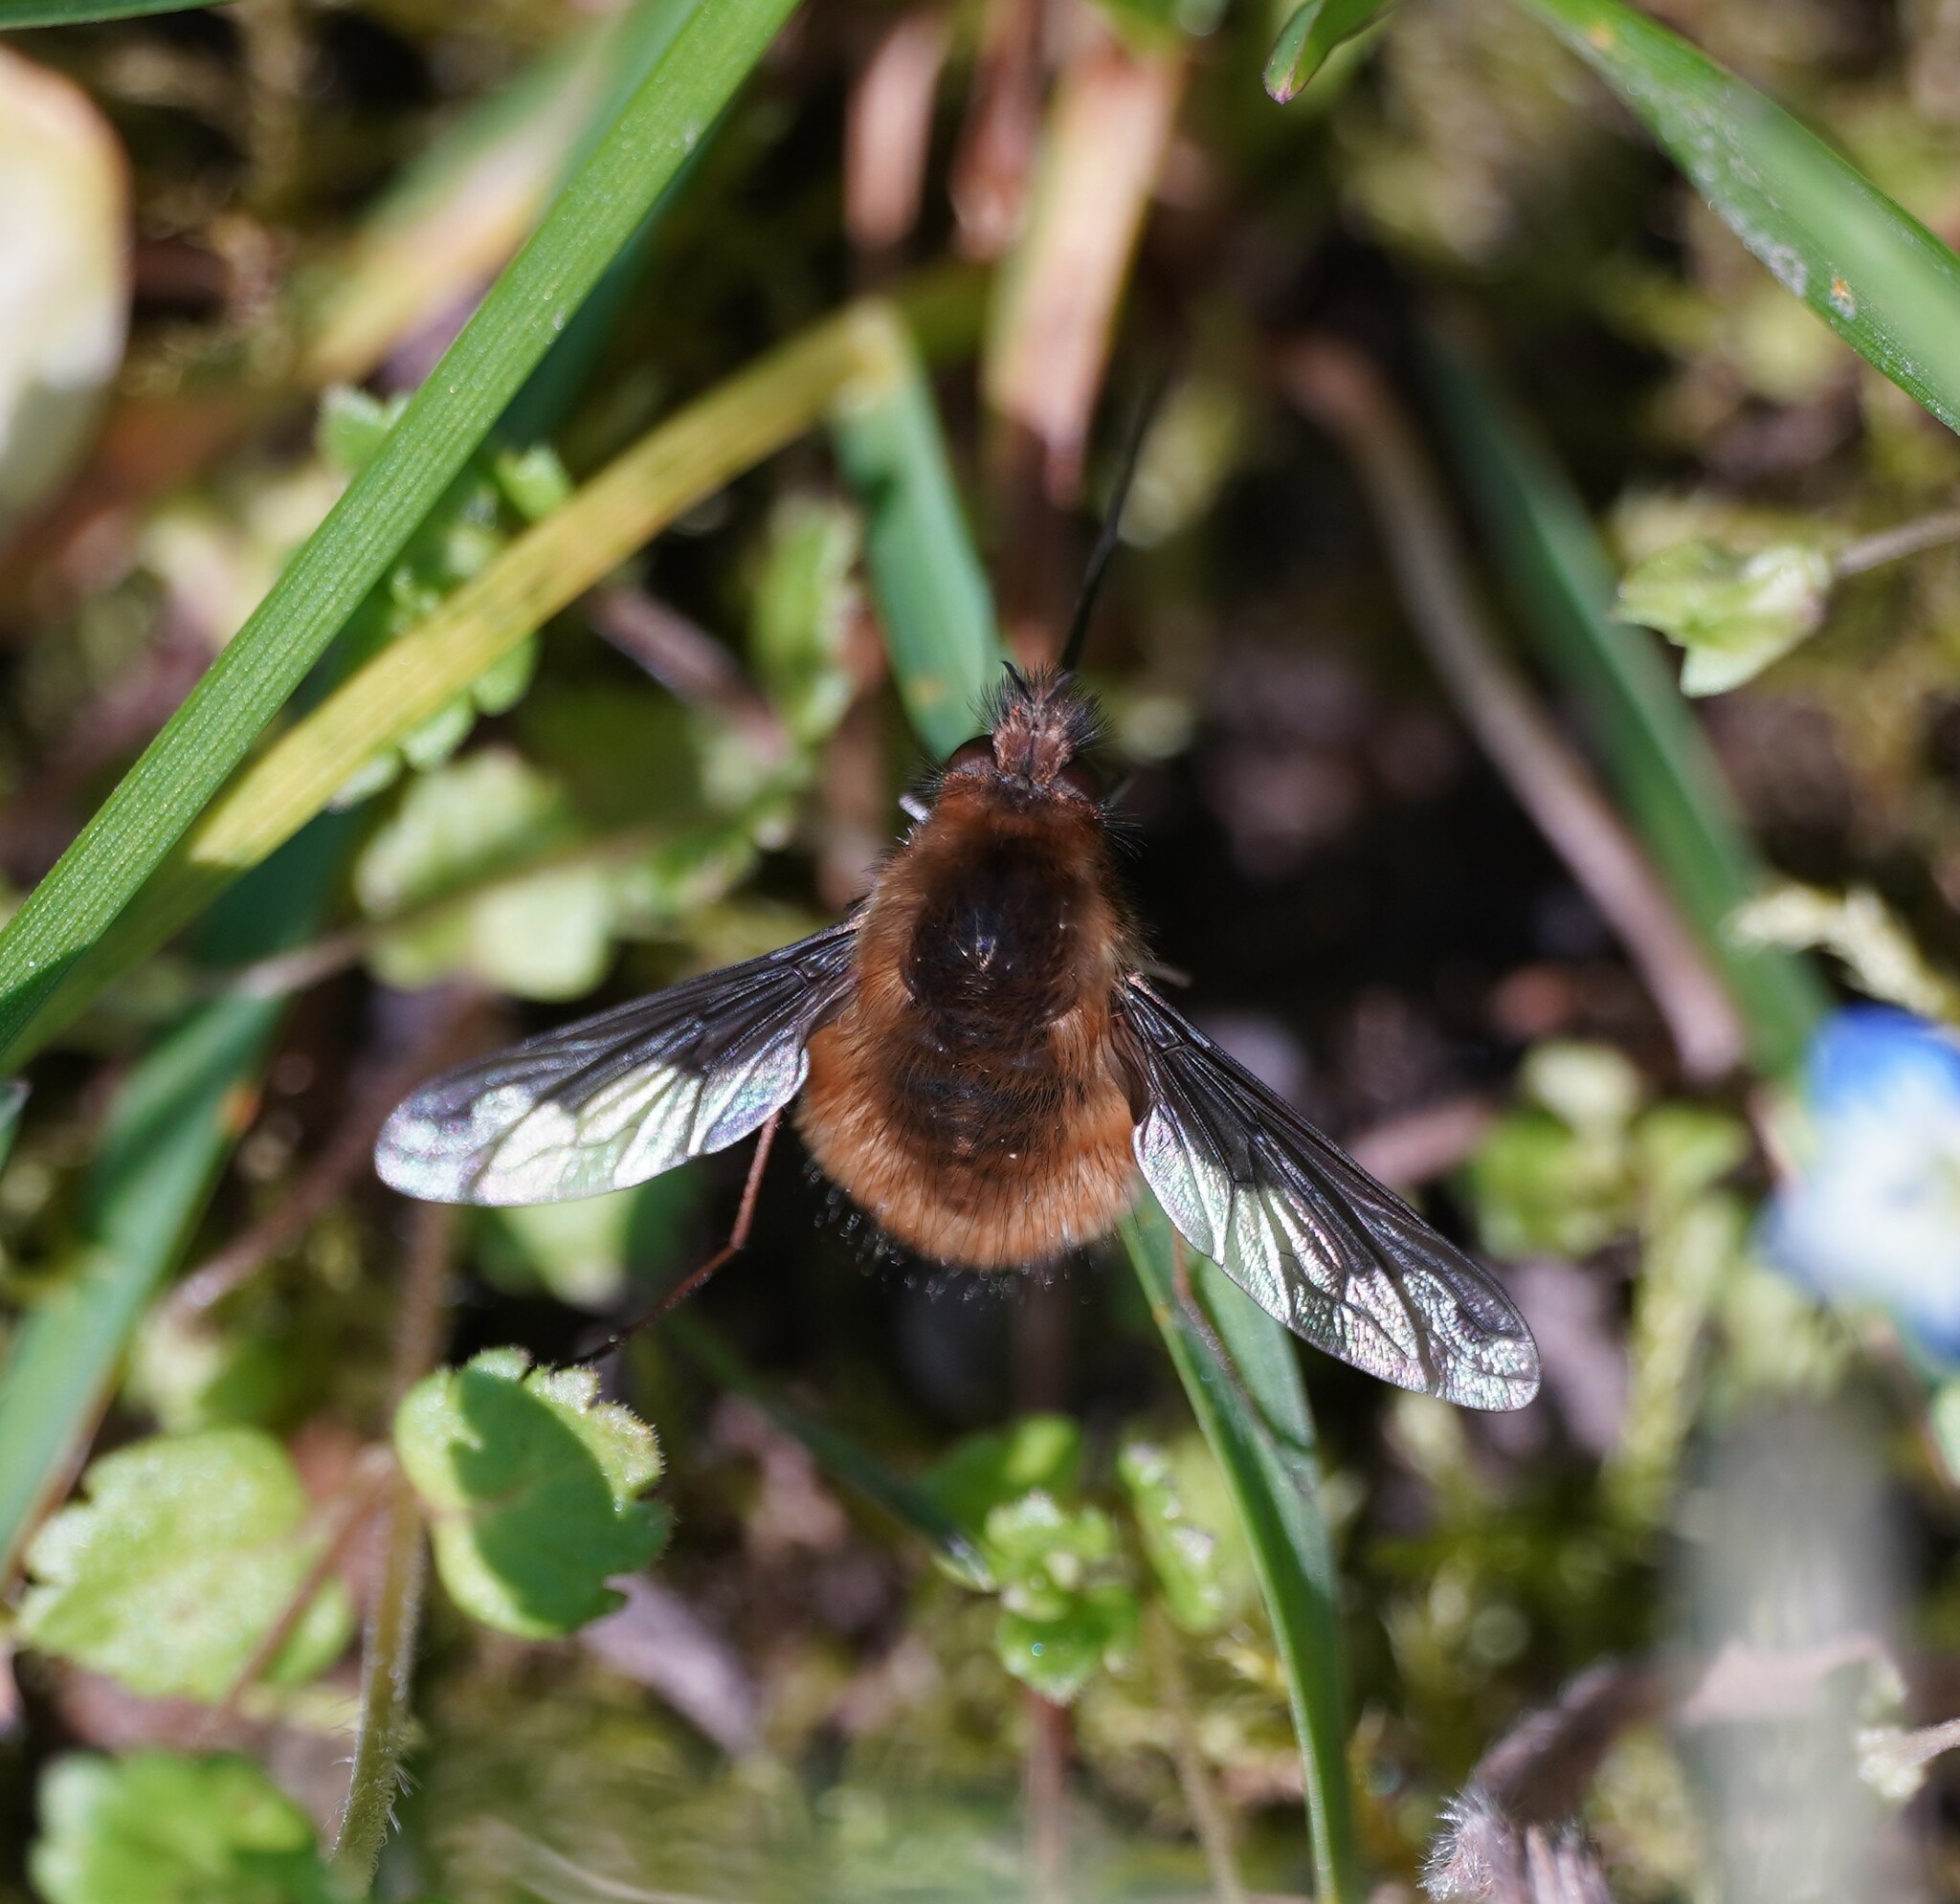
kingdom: Animalia
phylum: Arthropoda
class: Insecta
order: Diptera
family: Bombyliidae
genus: Bombylius
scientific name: Bombylius major
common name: Bee fly
